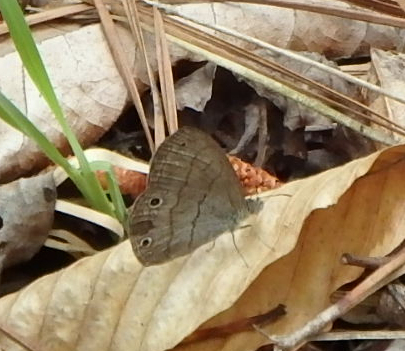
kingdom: Animalia
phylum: Arthropoda
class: Insecta
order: Lepidoptera
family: Nymphalidae
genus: Hermeuptychia
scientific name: Hermeuptychia hermes
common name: Hermes satyr
